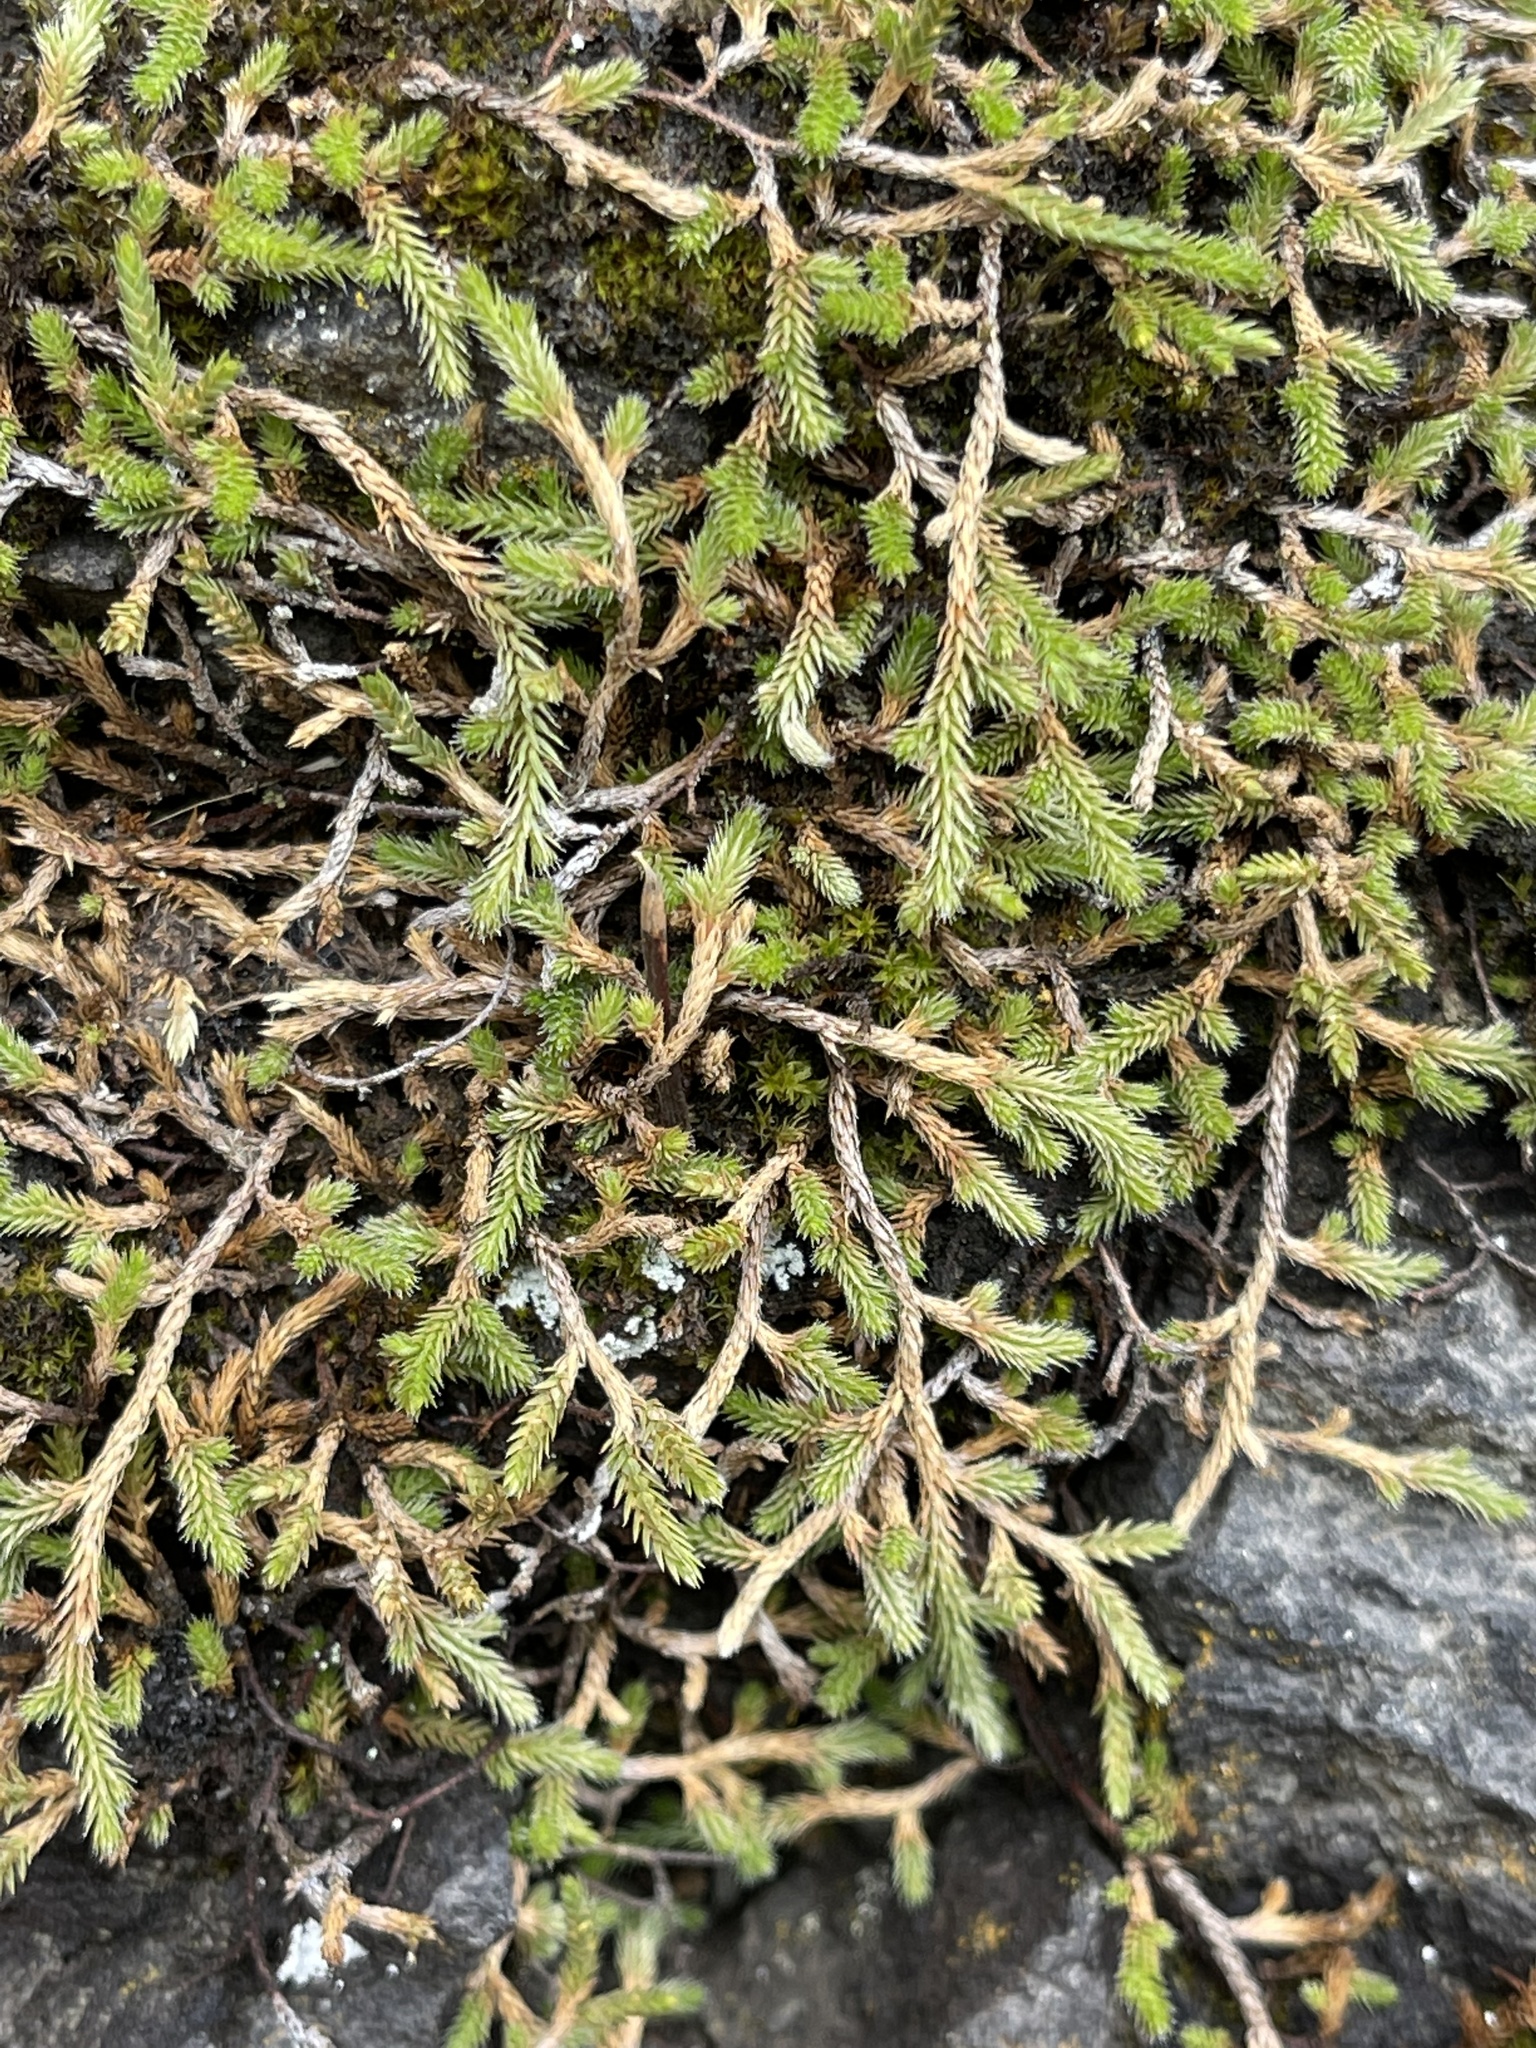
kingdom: Plantae
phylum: Tracheophyta
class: Lycopodiopsida
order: Selaginellales
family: Selaginellaceae
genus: Selaginella
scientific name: Selaginella wallacei
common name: Wallace's selaginella
